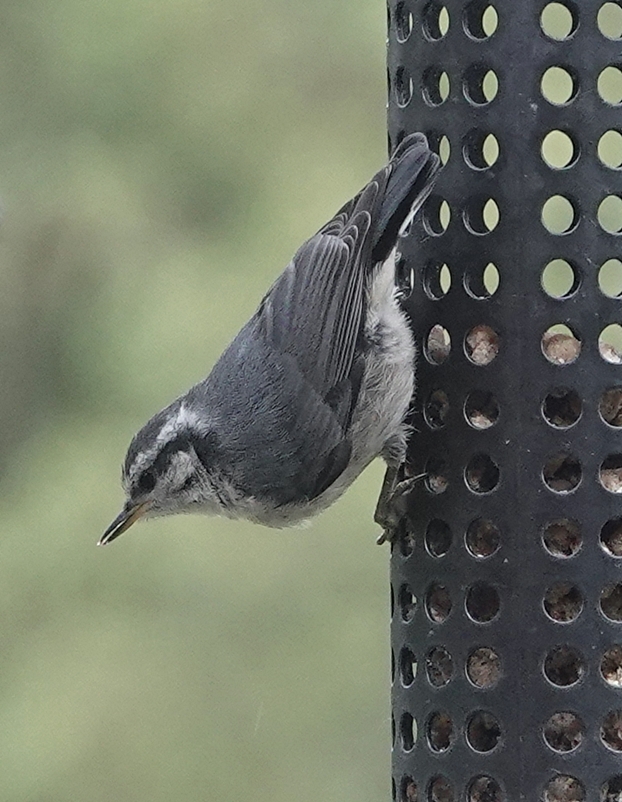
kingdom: Animalia
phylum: Chordata
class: Aves
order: Passeriformes
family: Sittidae
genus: Sitta
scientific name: Sitta canadensis
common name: Red-breasted nuthatch
